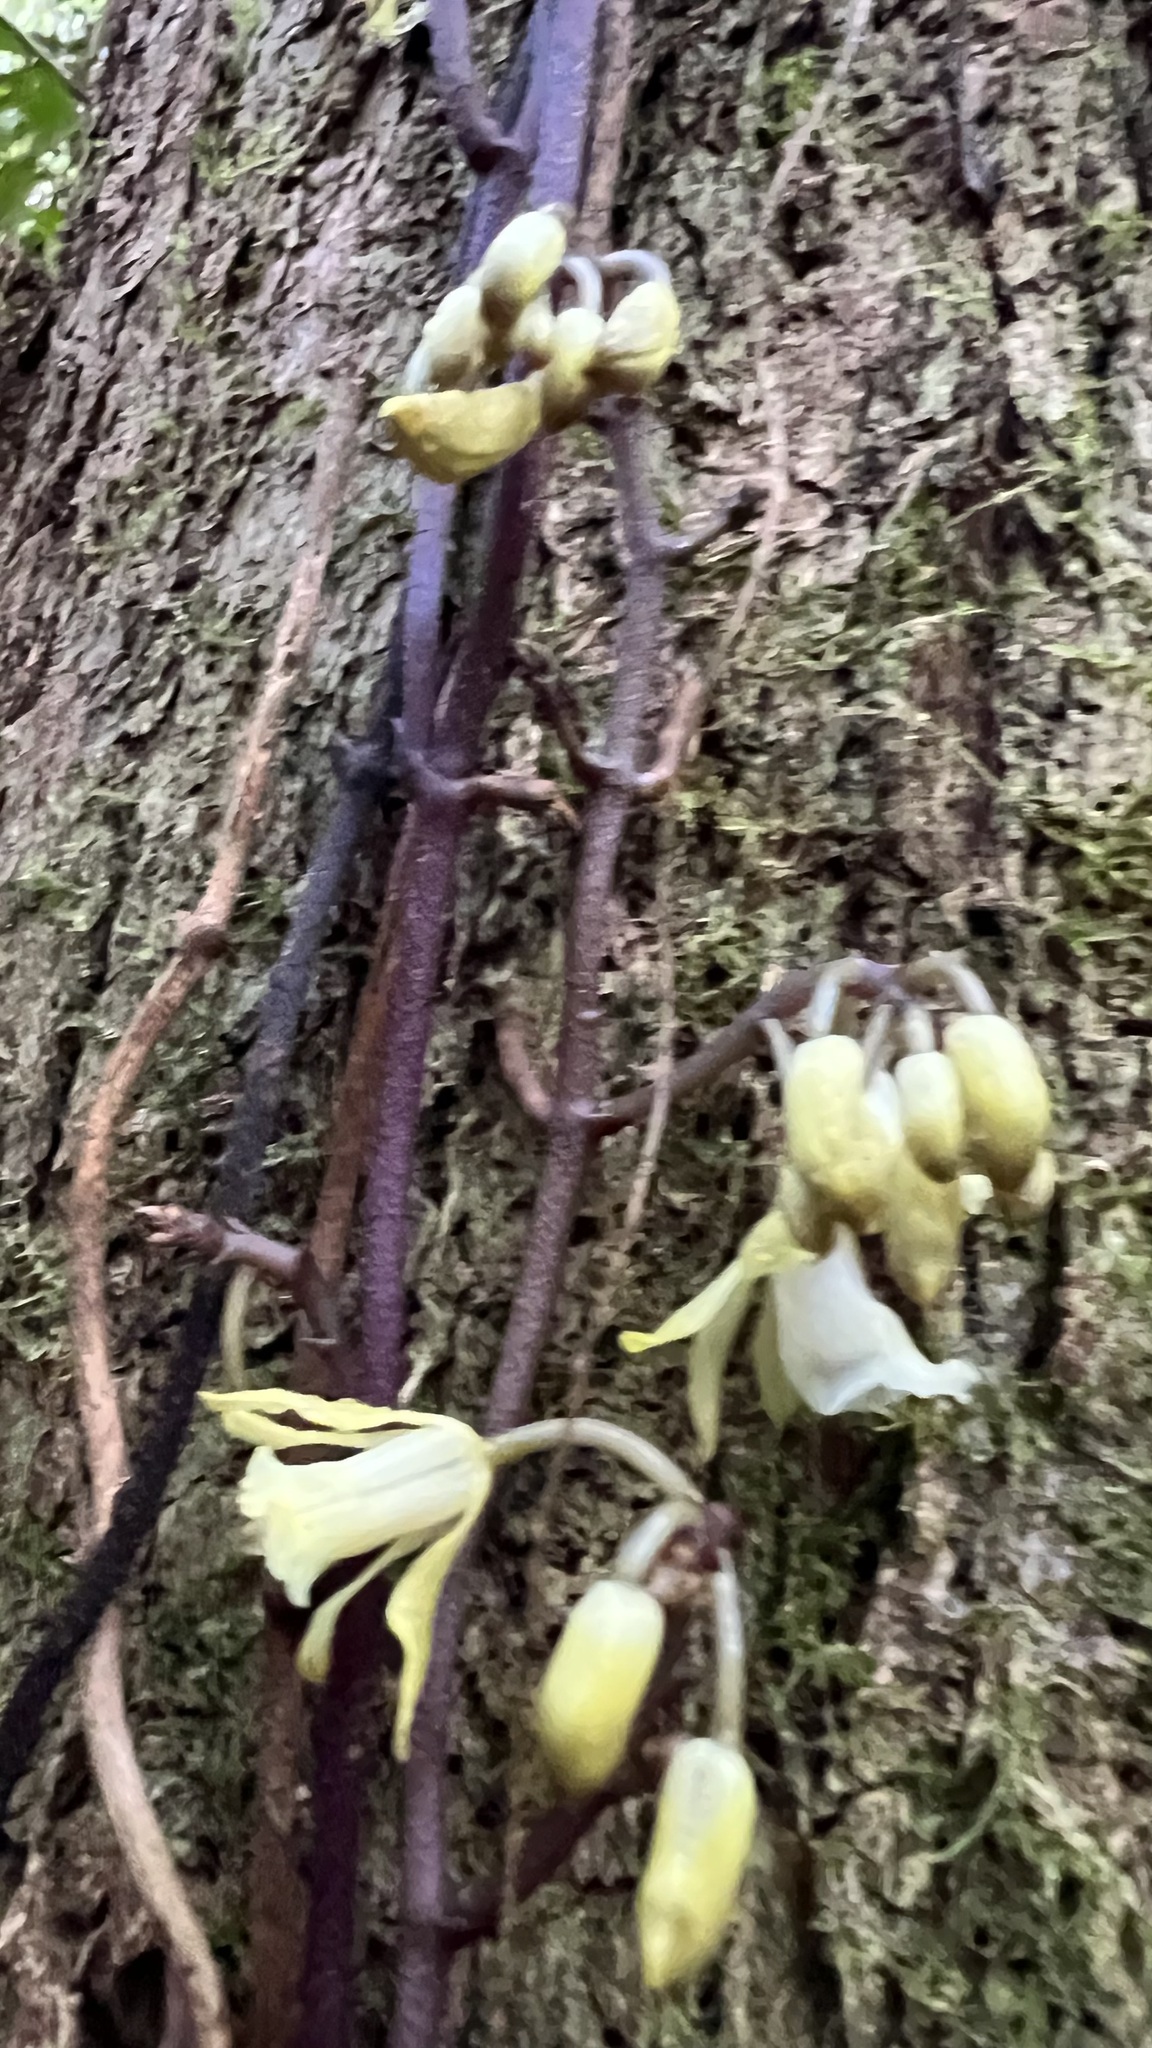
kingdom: Plantae
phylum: Tracheophyta
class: Liliopsida
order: Asparagales
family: Orchidaceae
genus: Erythrorchis
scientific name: Erythrorchis cassythoides
